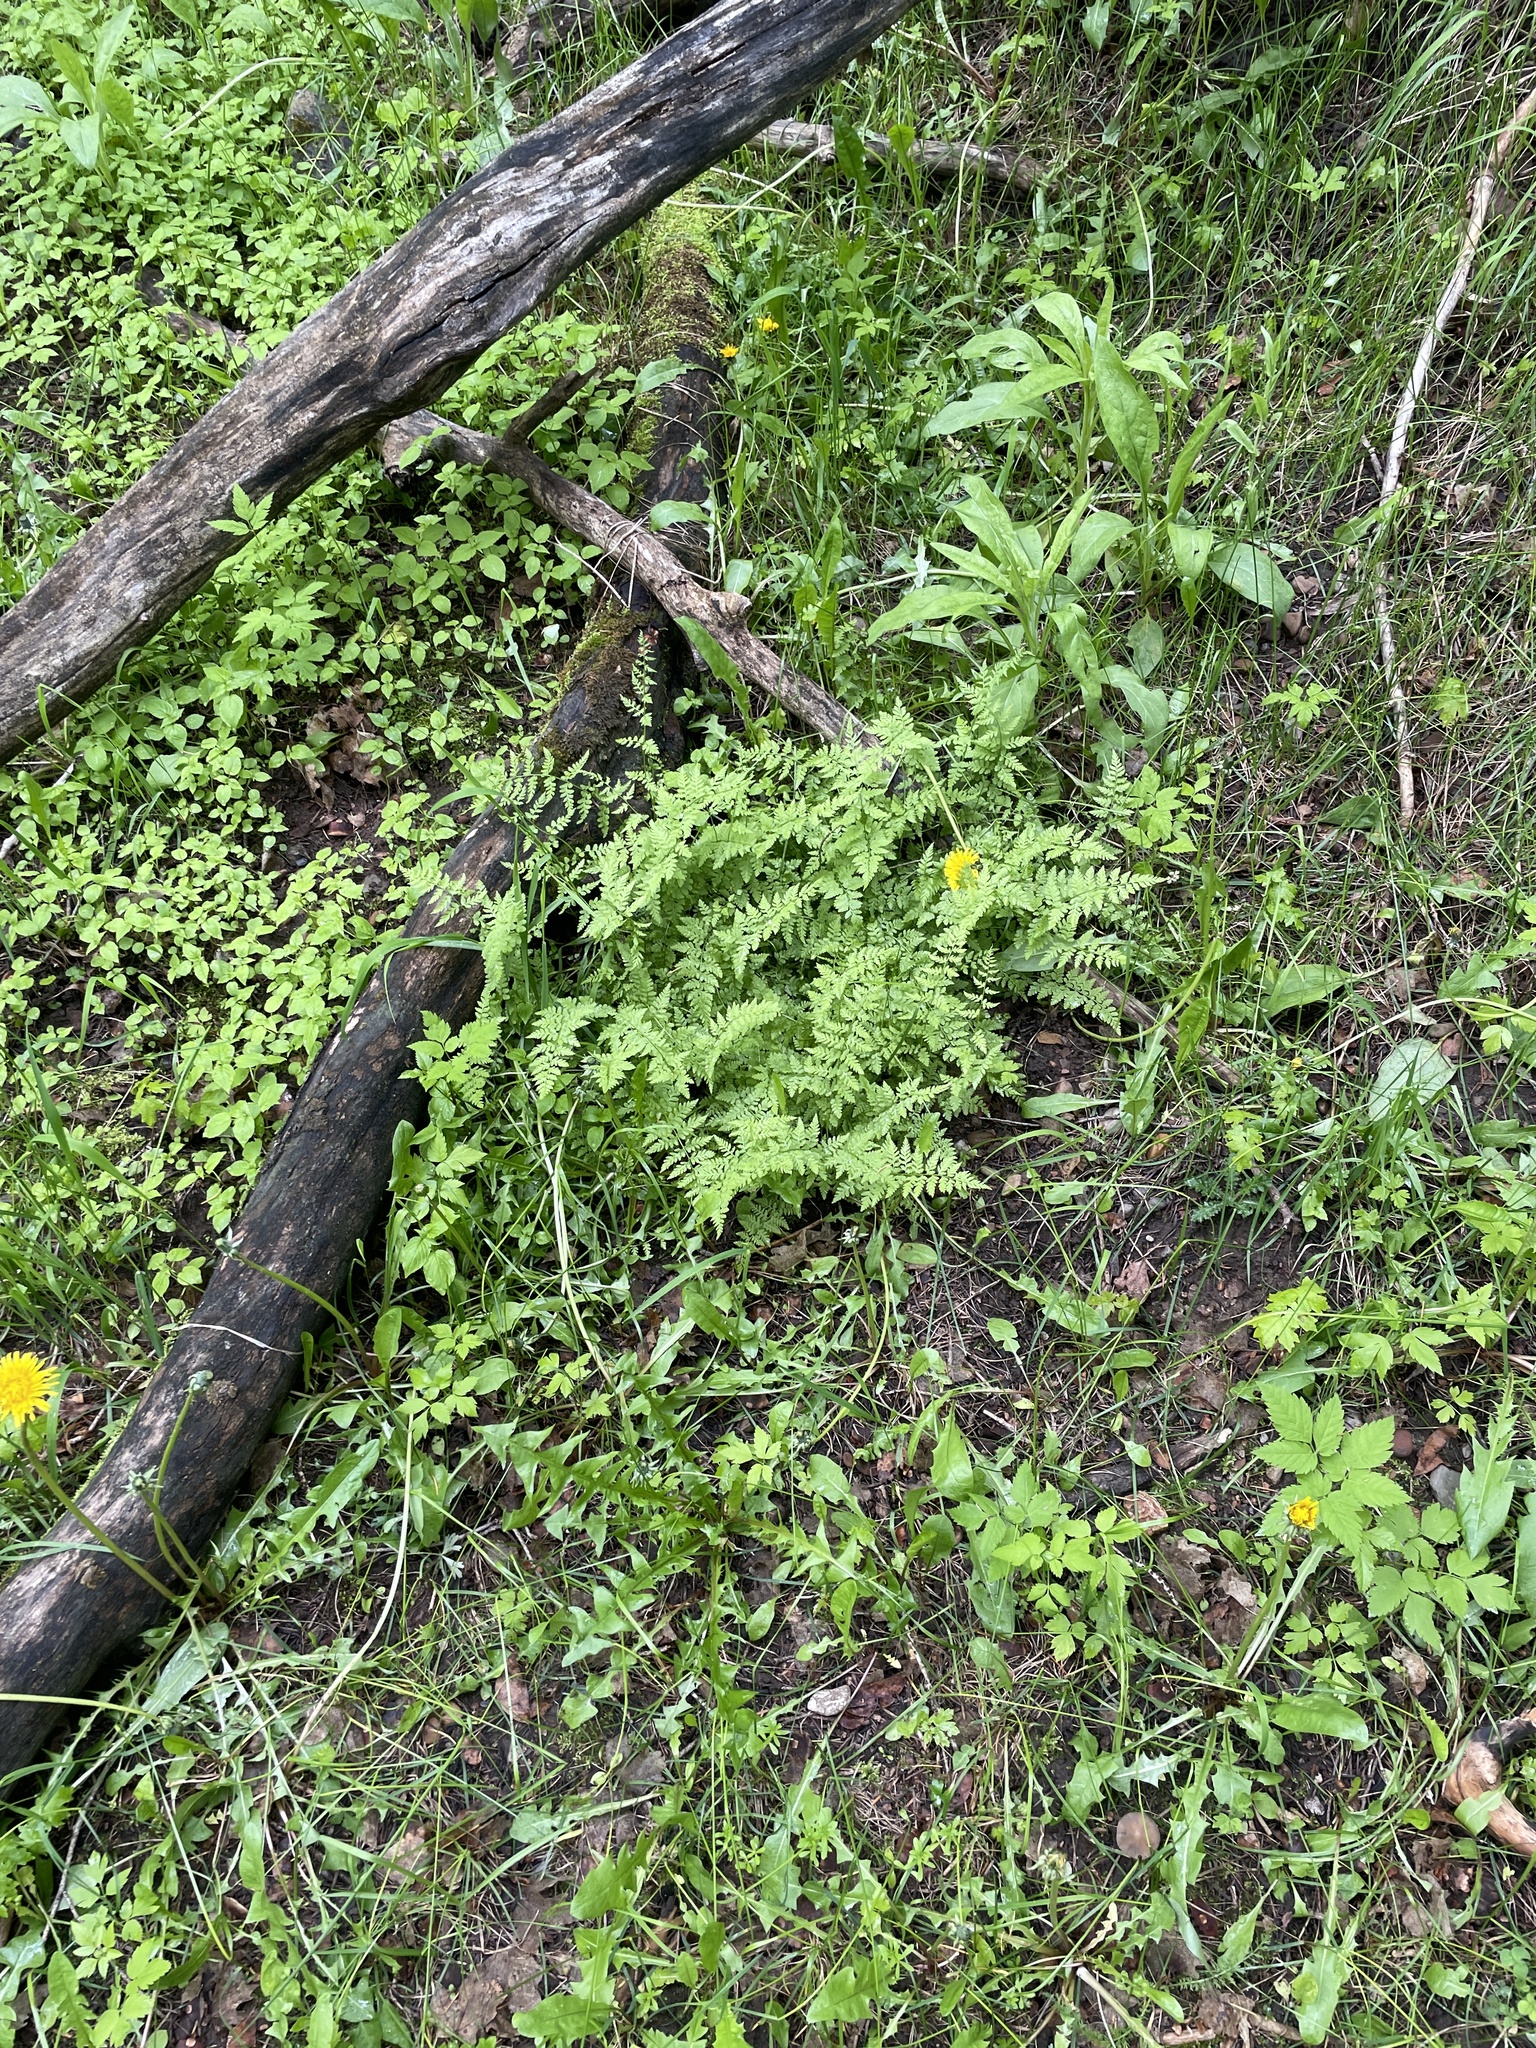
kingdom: Plantae
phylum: Tracheophyta
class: Polypodiopsida
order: Polypodiales
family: Cystopteridaceae
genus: Cystopteris
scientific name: Cystopteris fragilis
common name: Brittle bladder fern
